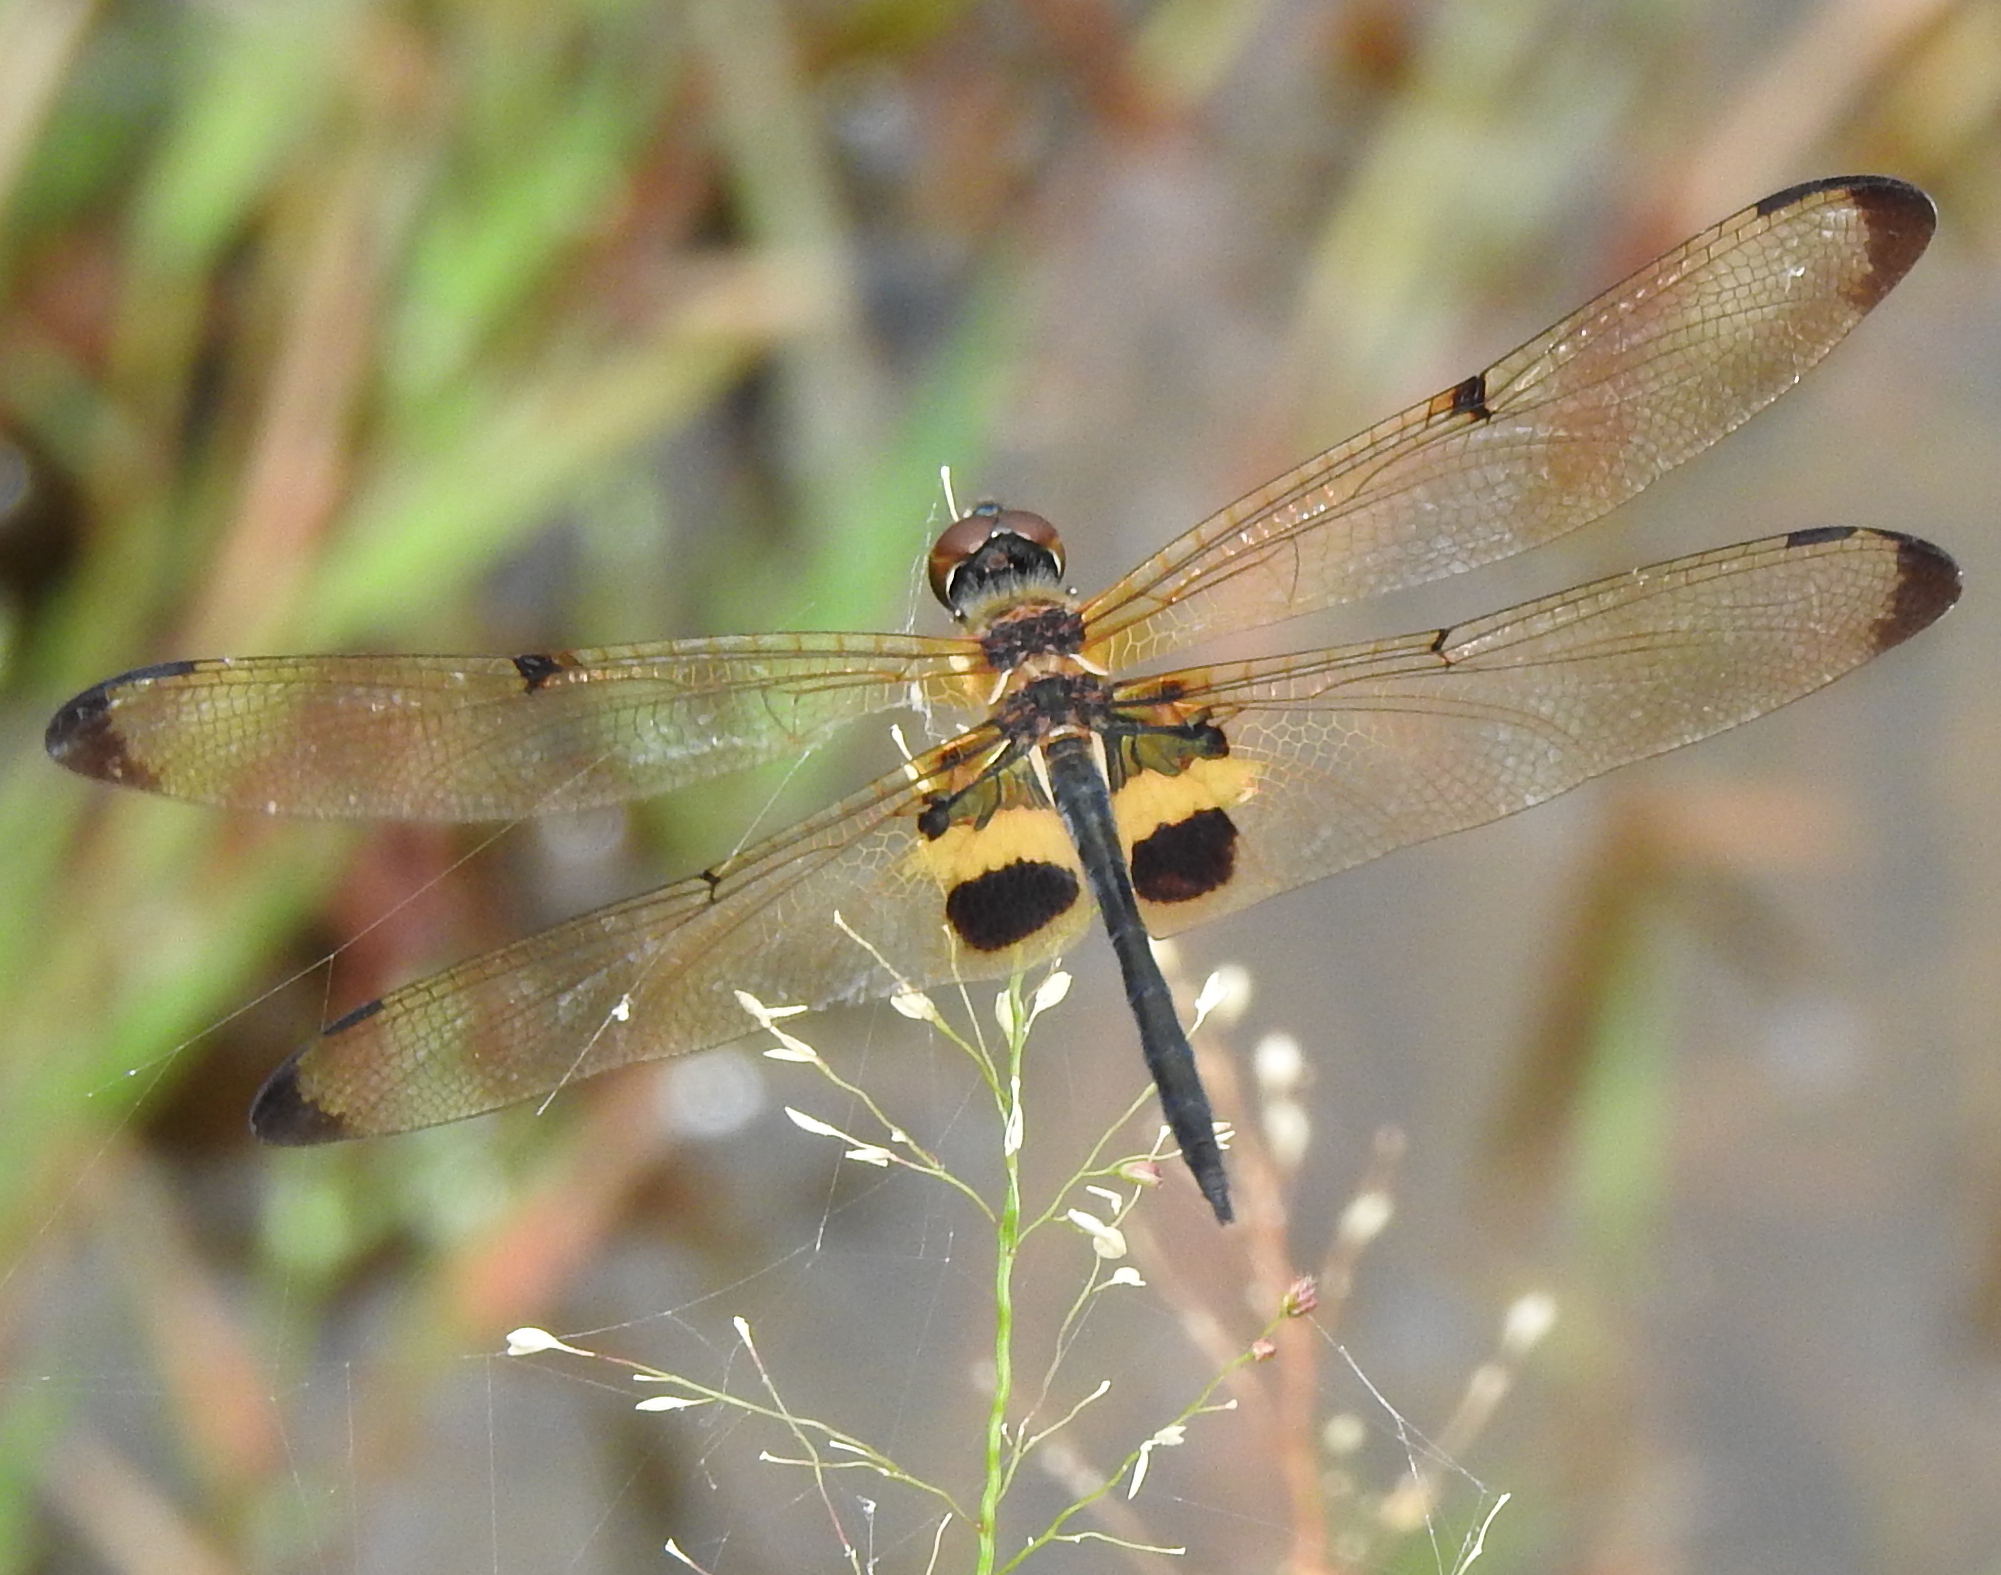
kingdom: Animalia
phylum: Arthropoda
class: Insecta
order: Odonata
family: Libellulidae
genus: Rhyothemis
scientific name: Rhyothemis phyllis
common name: Yellow-barred flutterer
